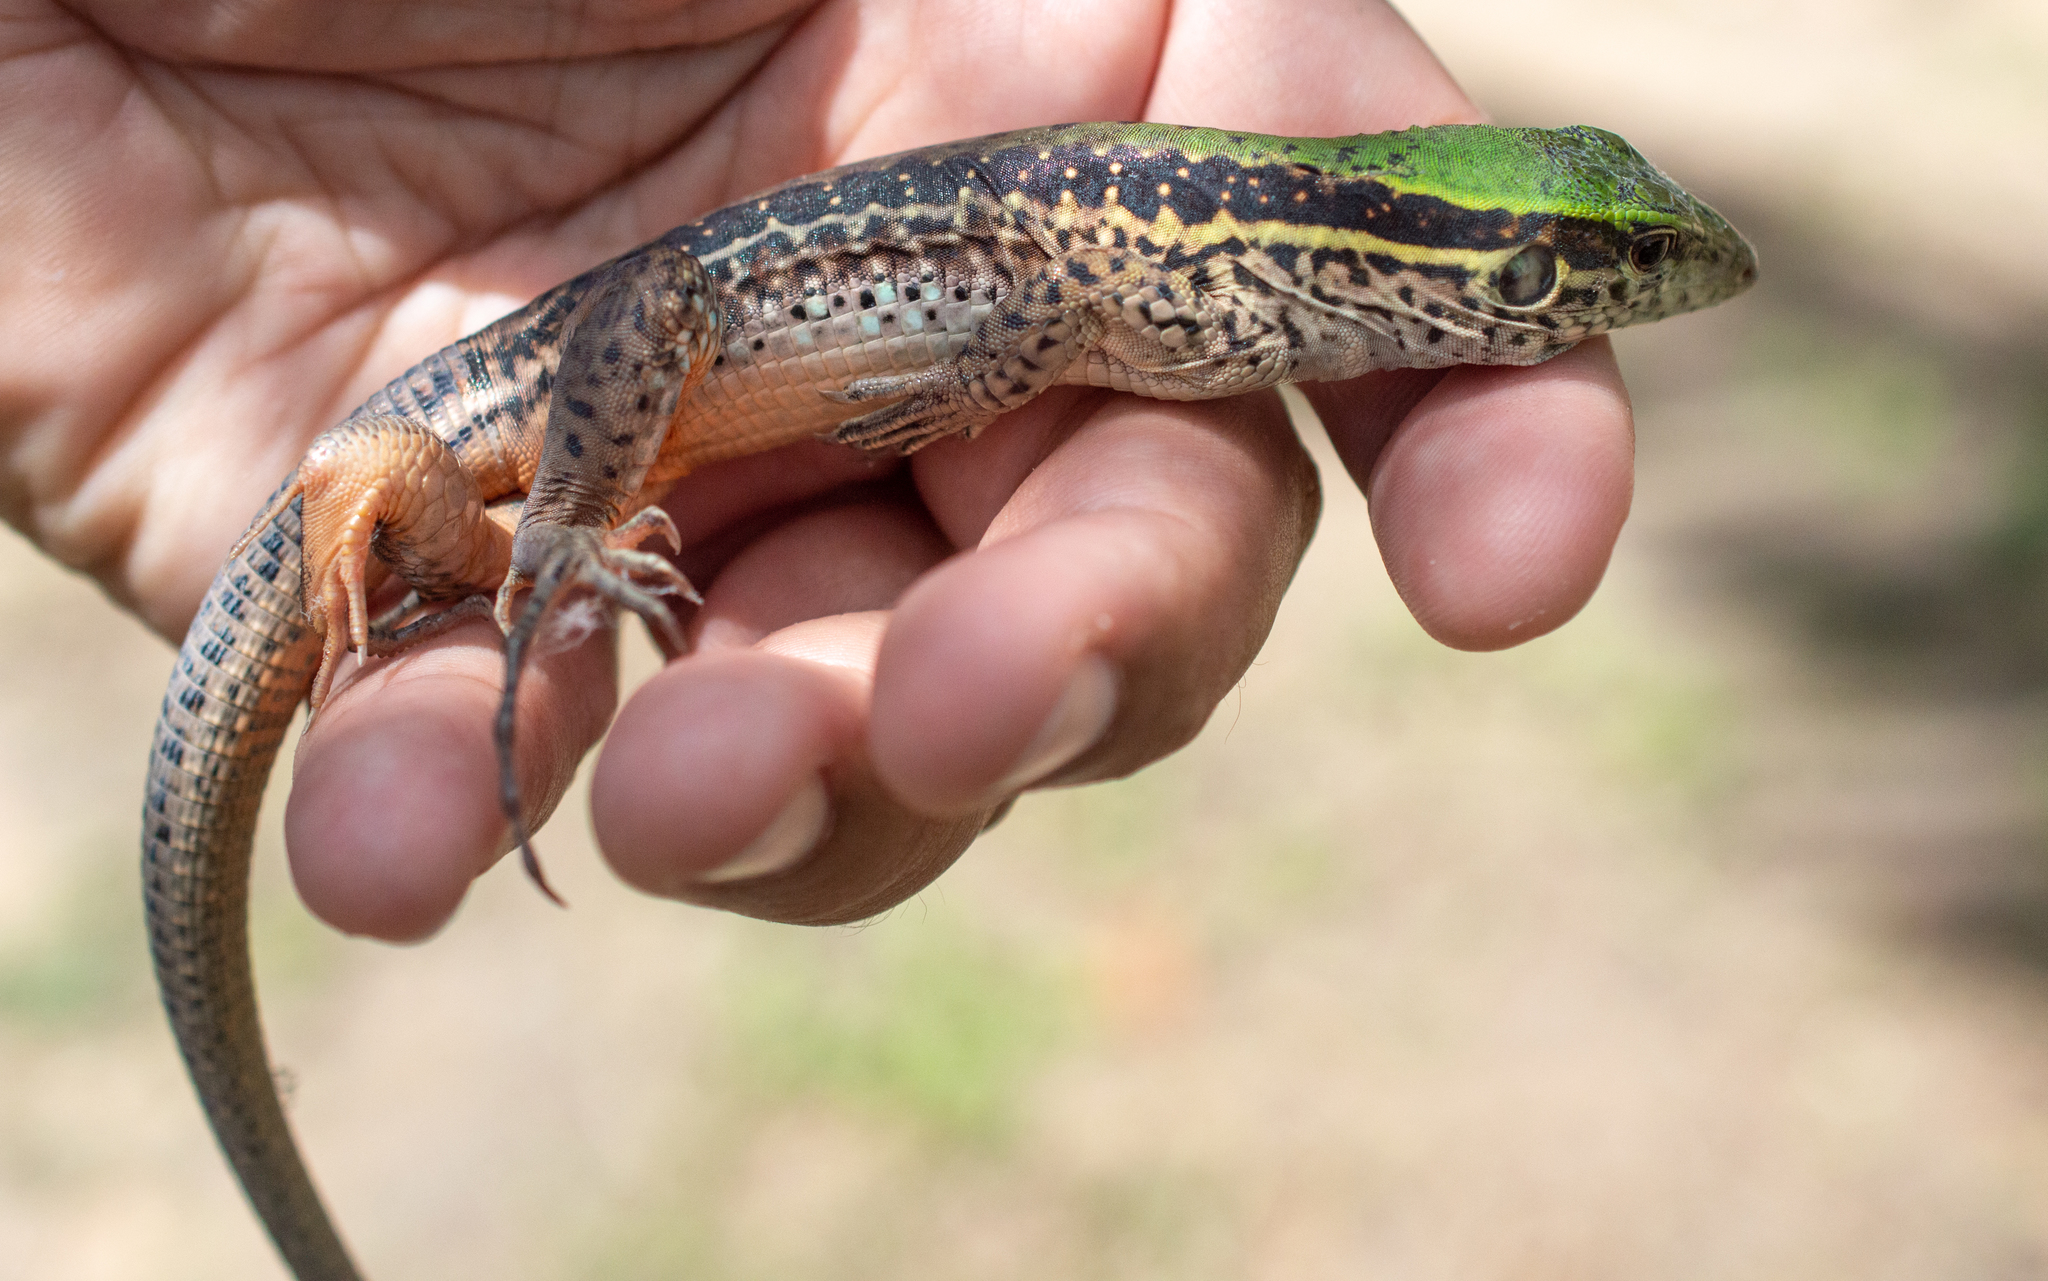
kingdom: Animalia
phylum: Chordata
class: Squamata
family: Teiidae
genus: Ameiva
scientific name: Ameiva ameiva
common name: Giant ameiva
